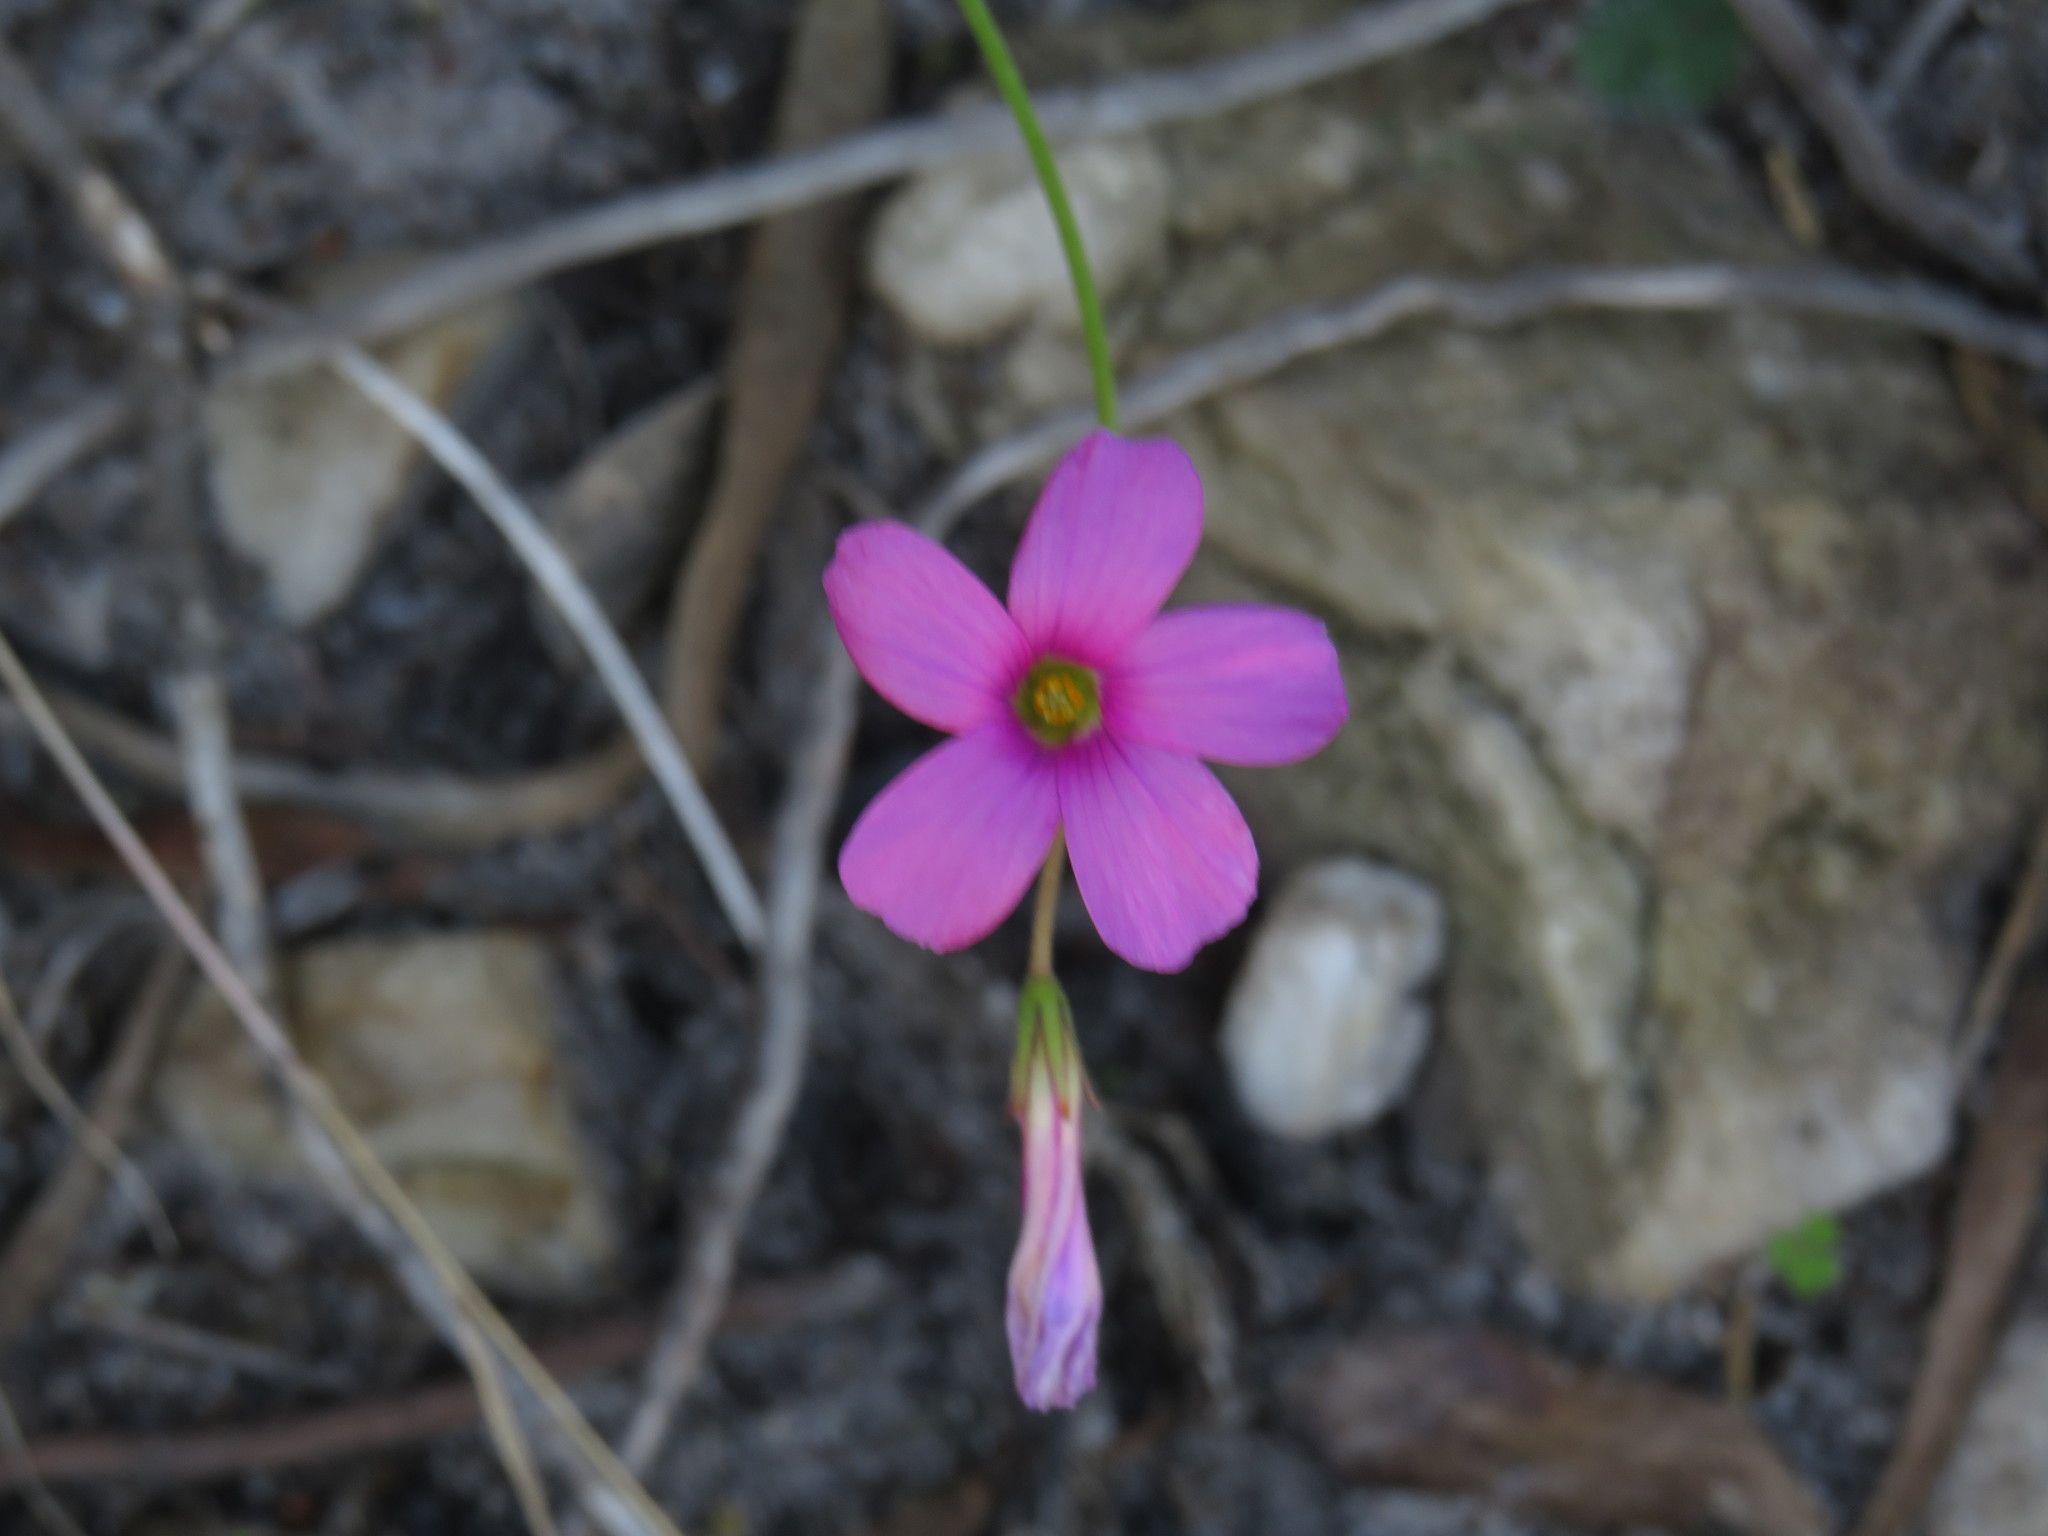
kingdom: Plantae
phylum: Tracheophyta
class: Magnoliopsida
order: Oxalidales
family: Oxalidaceae
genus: Oxalis
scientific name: Oxalis livida
